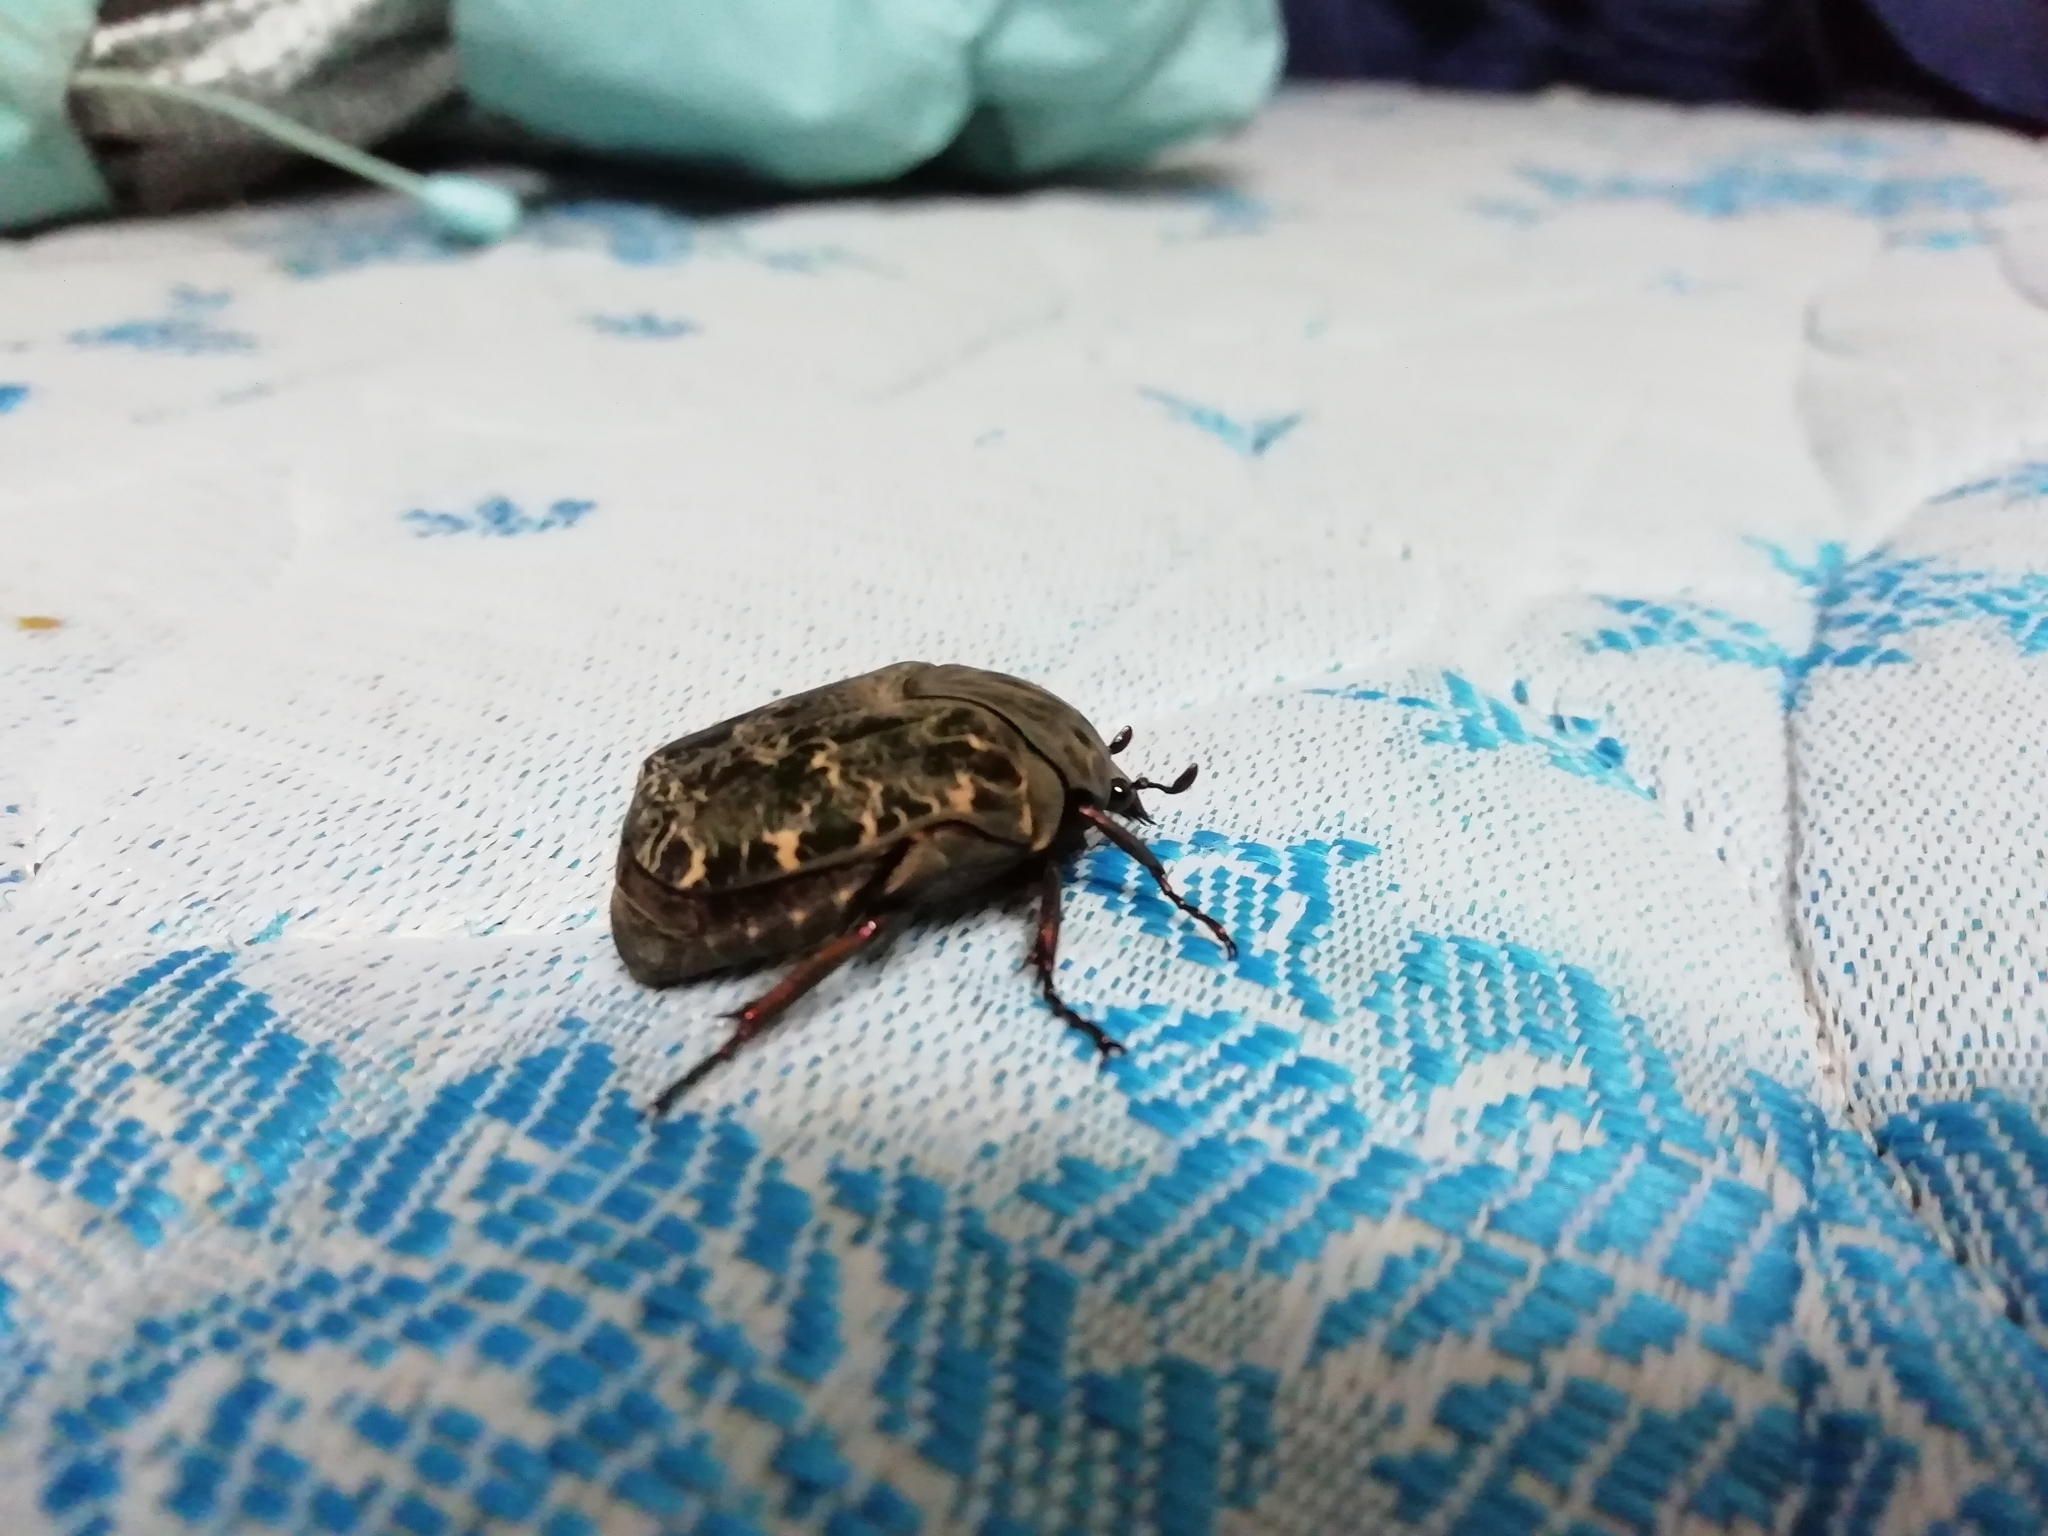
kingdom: Animalia
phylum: Arthropoda
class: Insecta
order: Coleoptera
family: Scarabaeidae
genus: Gymnetis
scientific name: Gymnetis chalcipes
